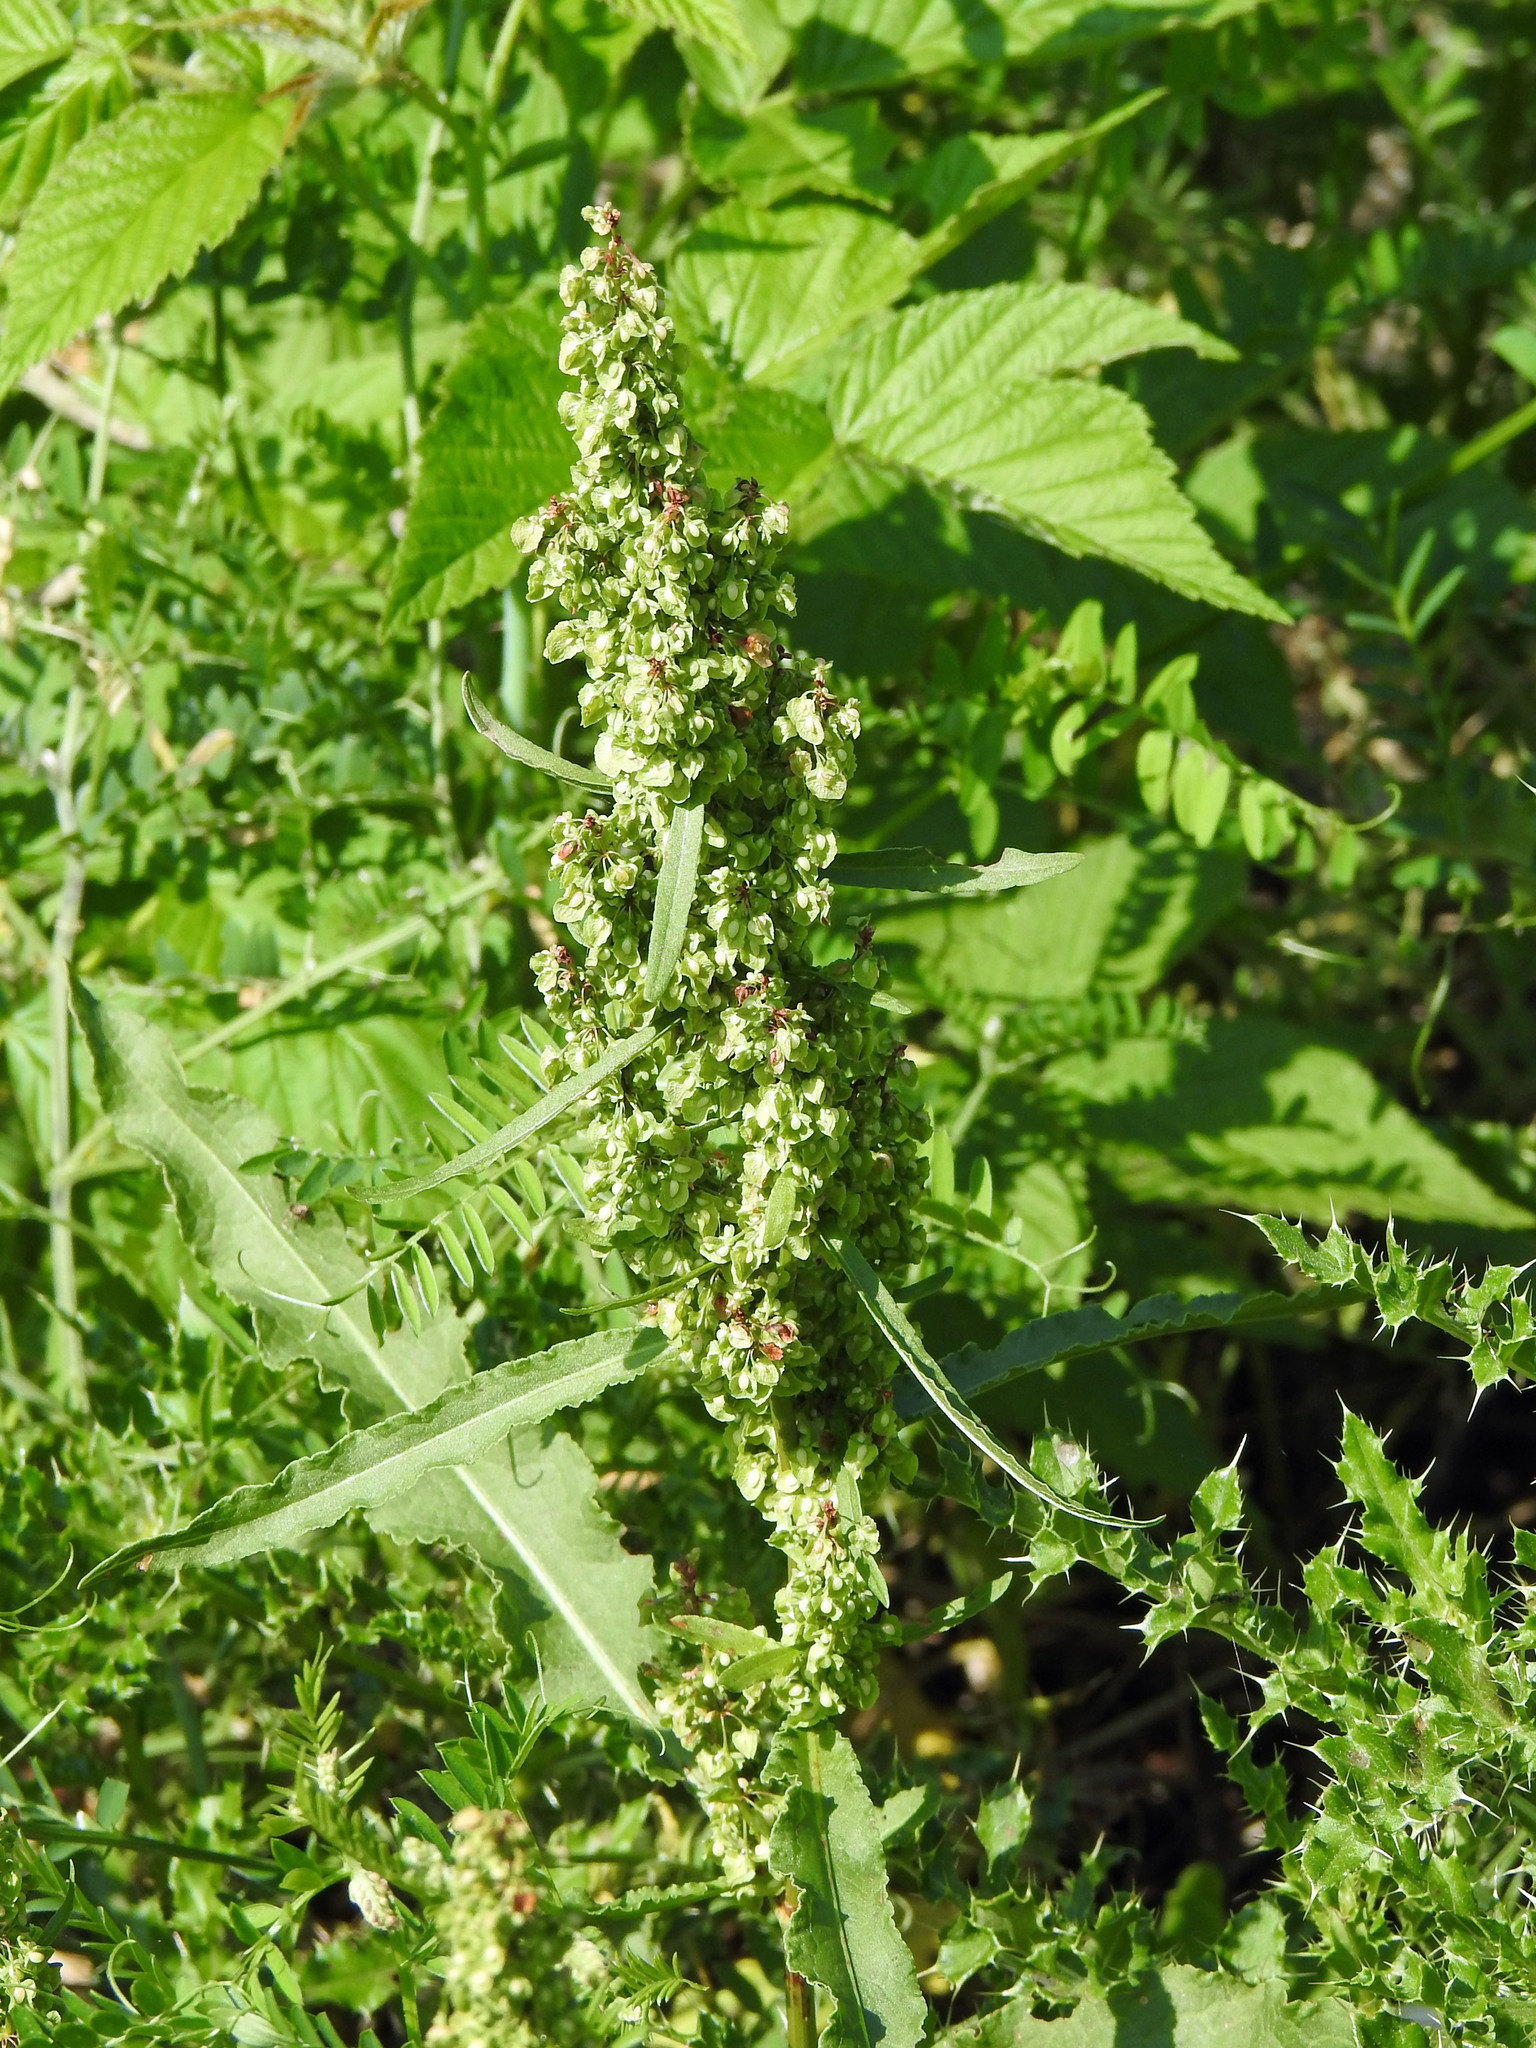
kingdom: Plantae
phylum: Tracheophyta
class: Magnoliopsida
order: Caryophyllales
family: Polygonaceae
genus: Rumex
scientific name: Rumex crispus
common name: Curled dock
